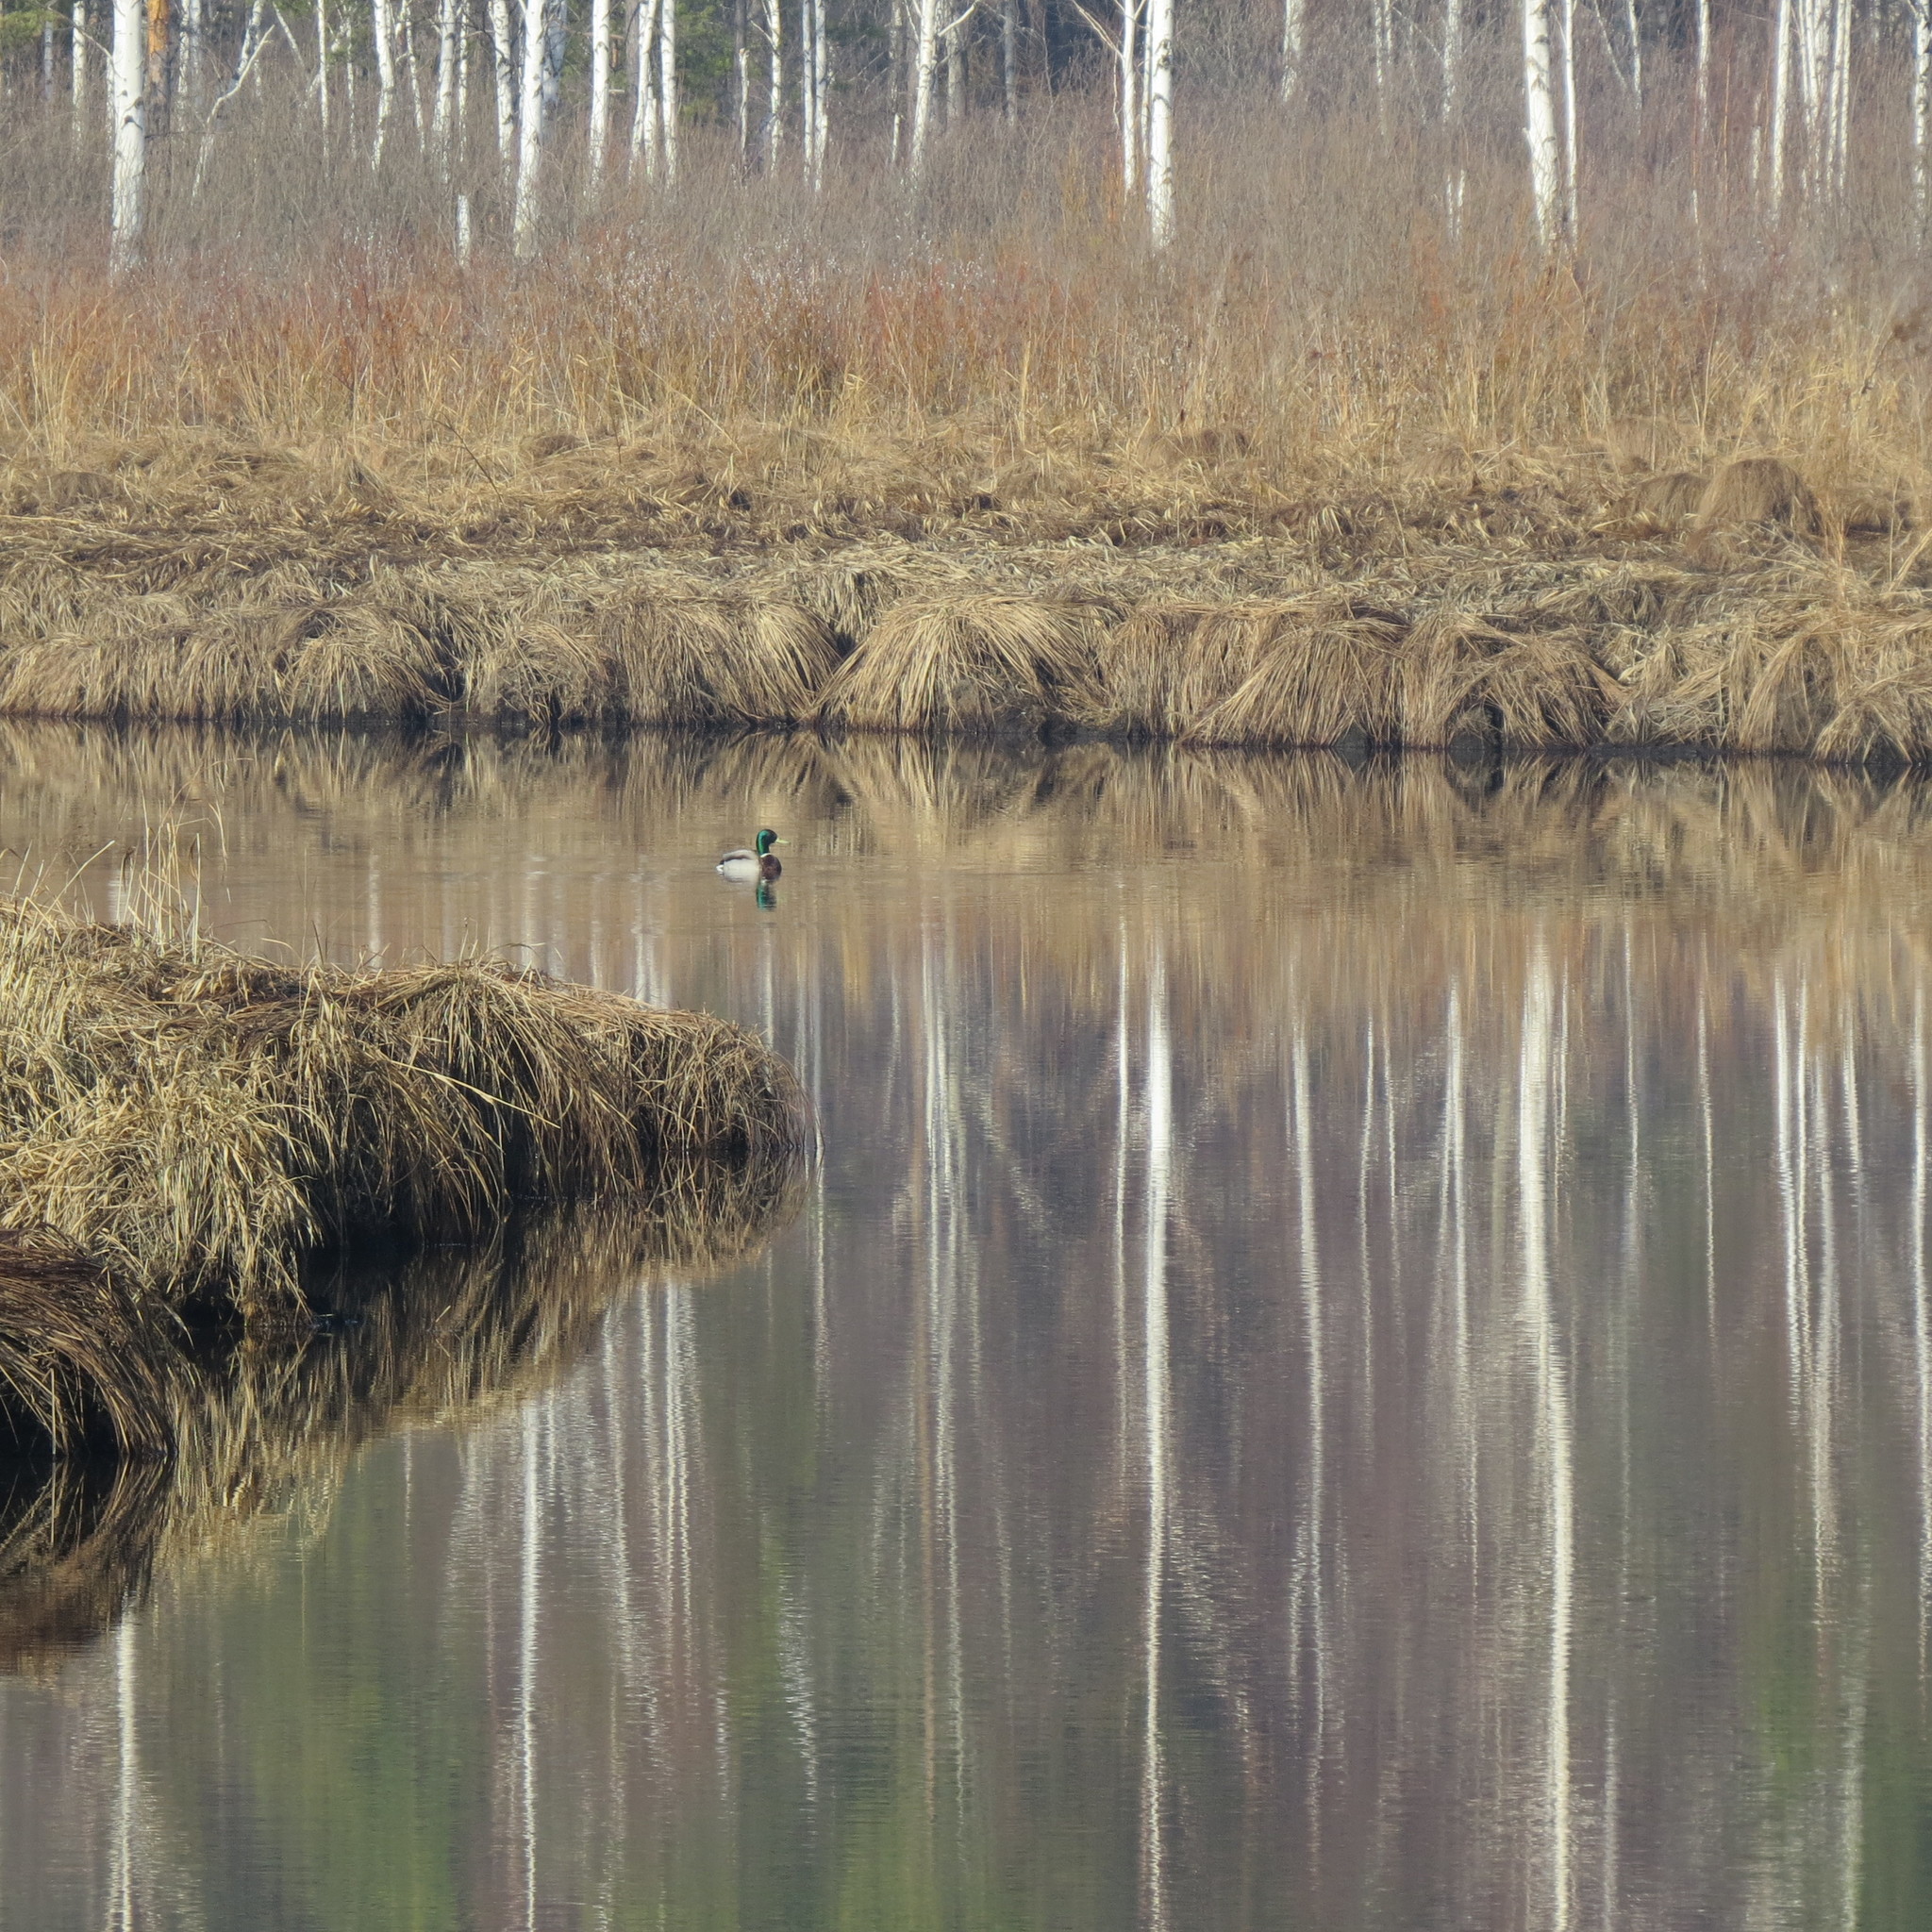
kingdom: Animalia
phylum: Chordata
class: Aves
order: Anseriformes
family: Anatidae
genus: Anas
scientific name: Anas platyrhynchos
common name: Mallard
